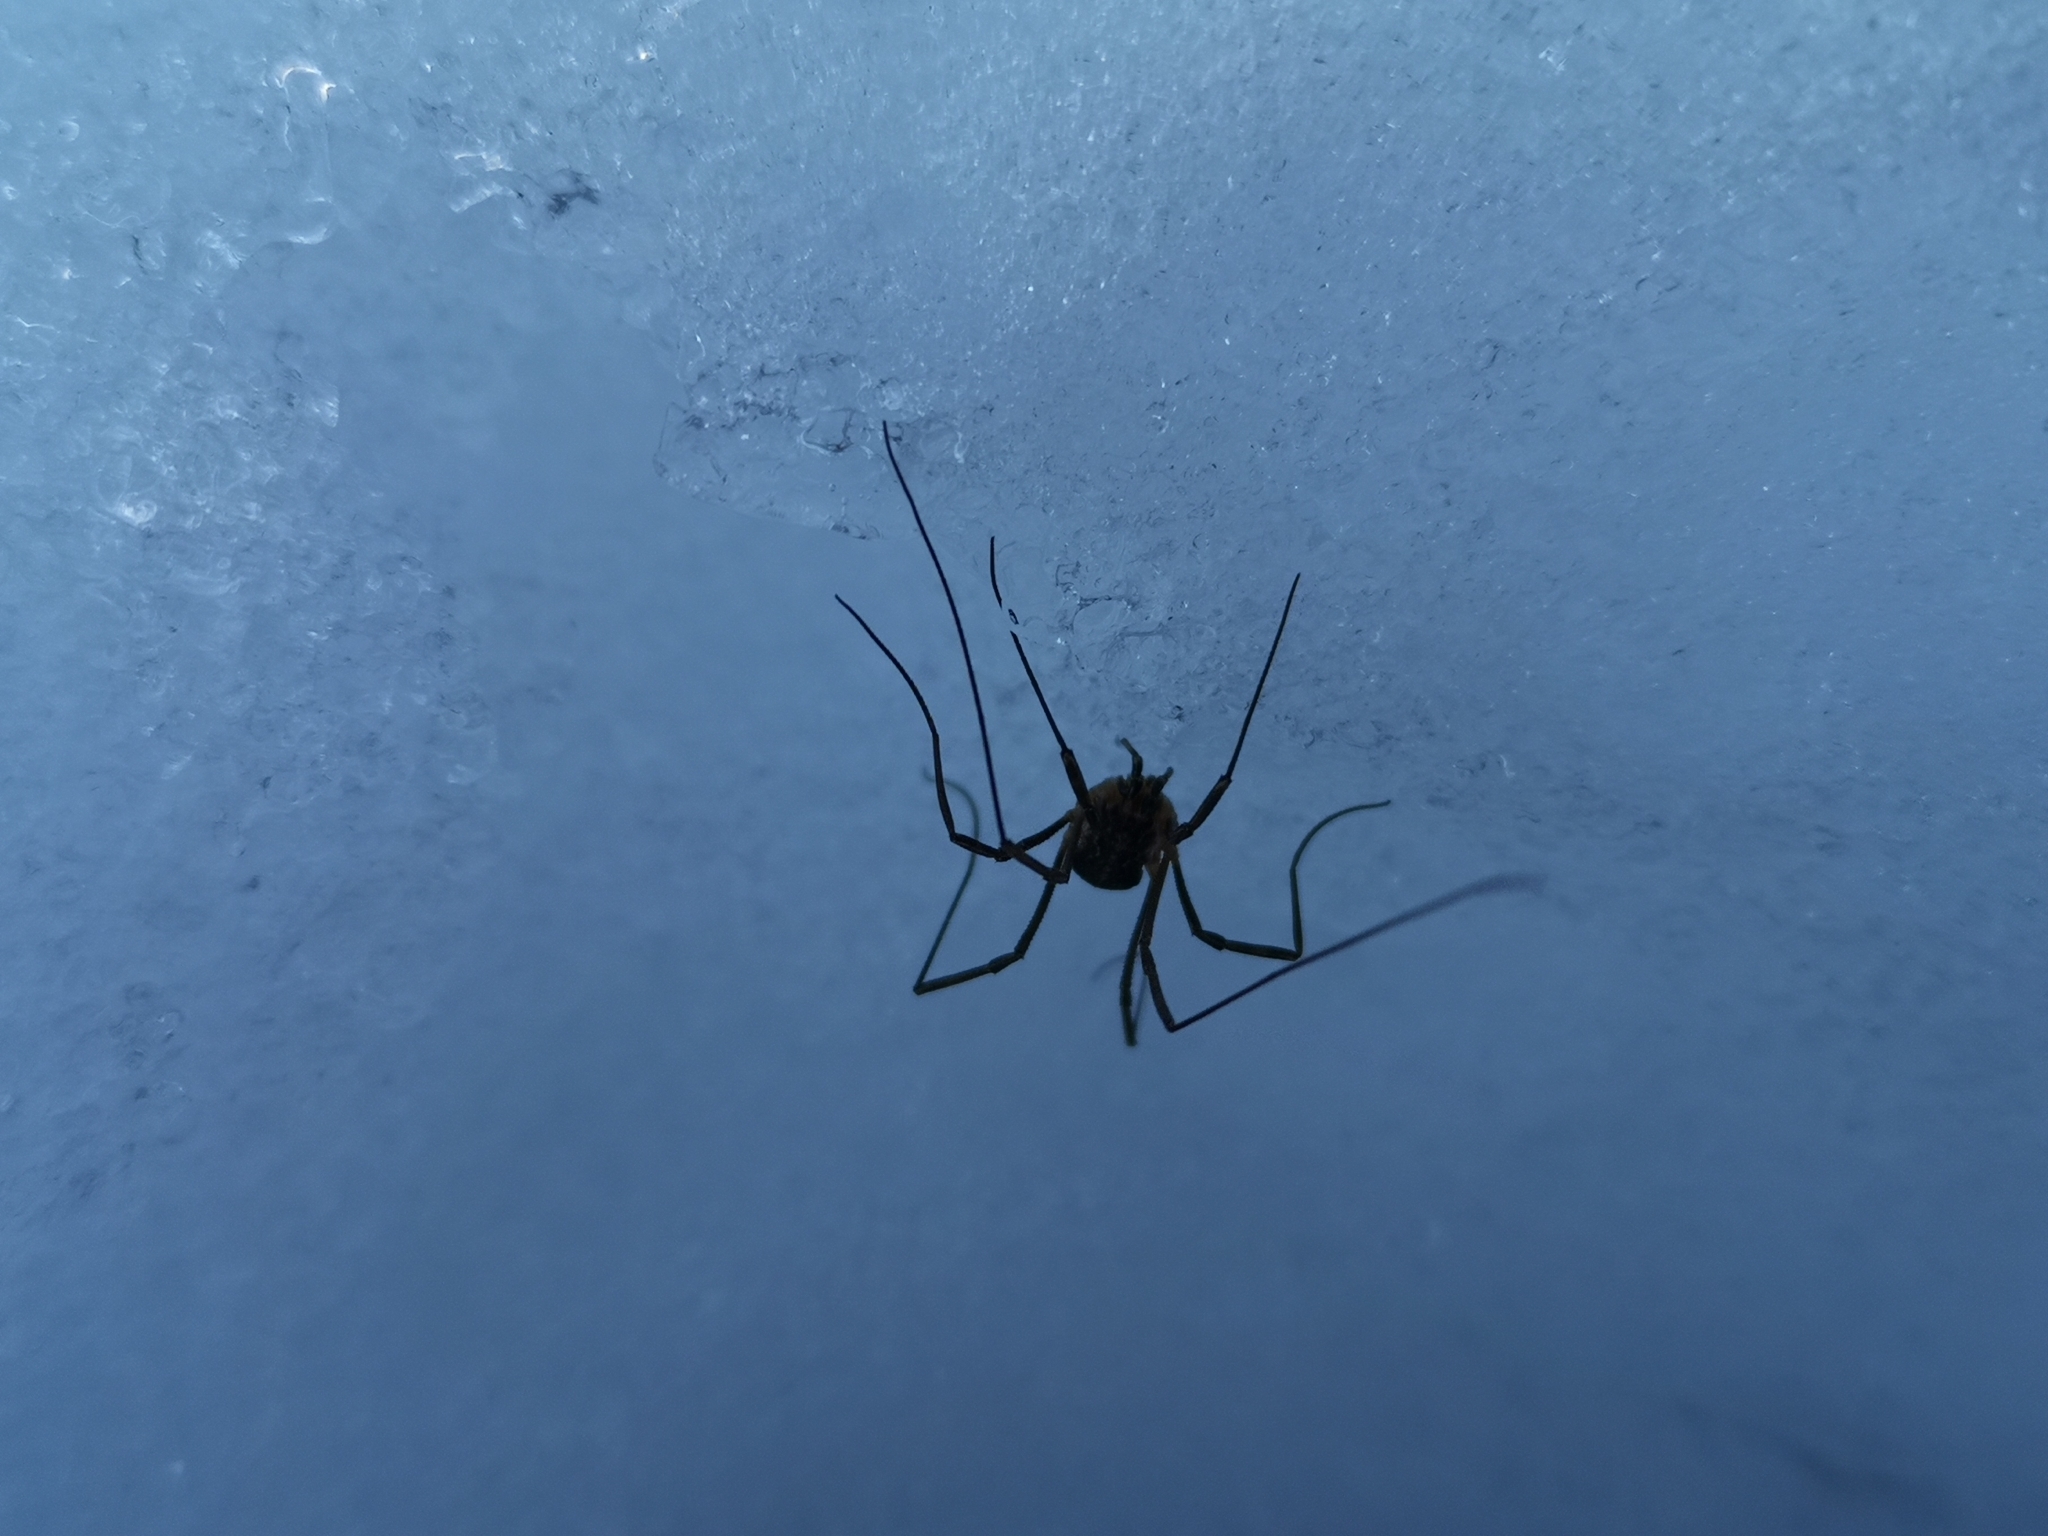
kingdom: Animalia
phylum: Arthropoda
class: Arachnida
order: Opiliones
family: Phalangiidae
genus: Mitopus
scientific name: Mitopus morio
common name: Saddleback harvestman
